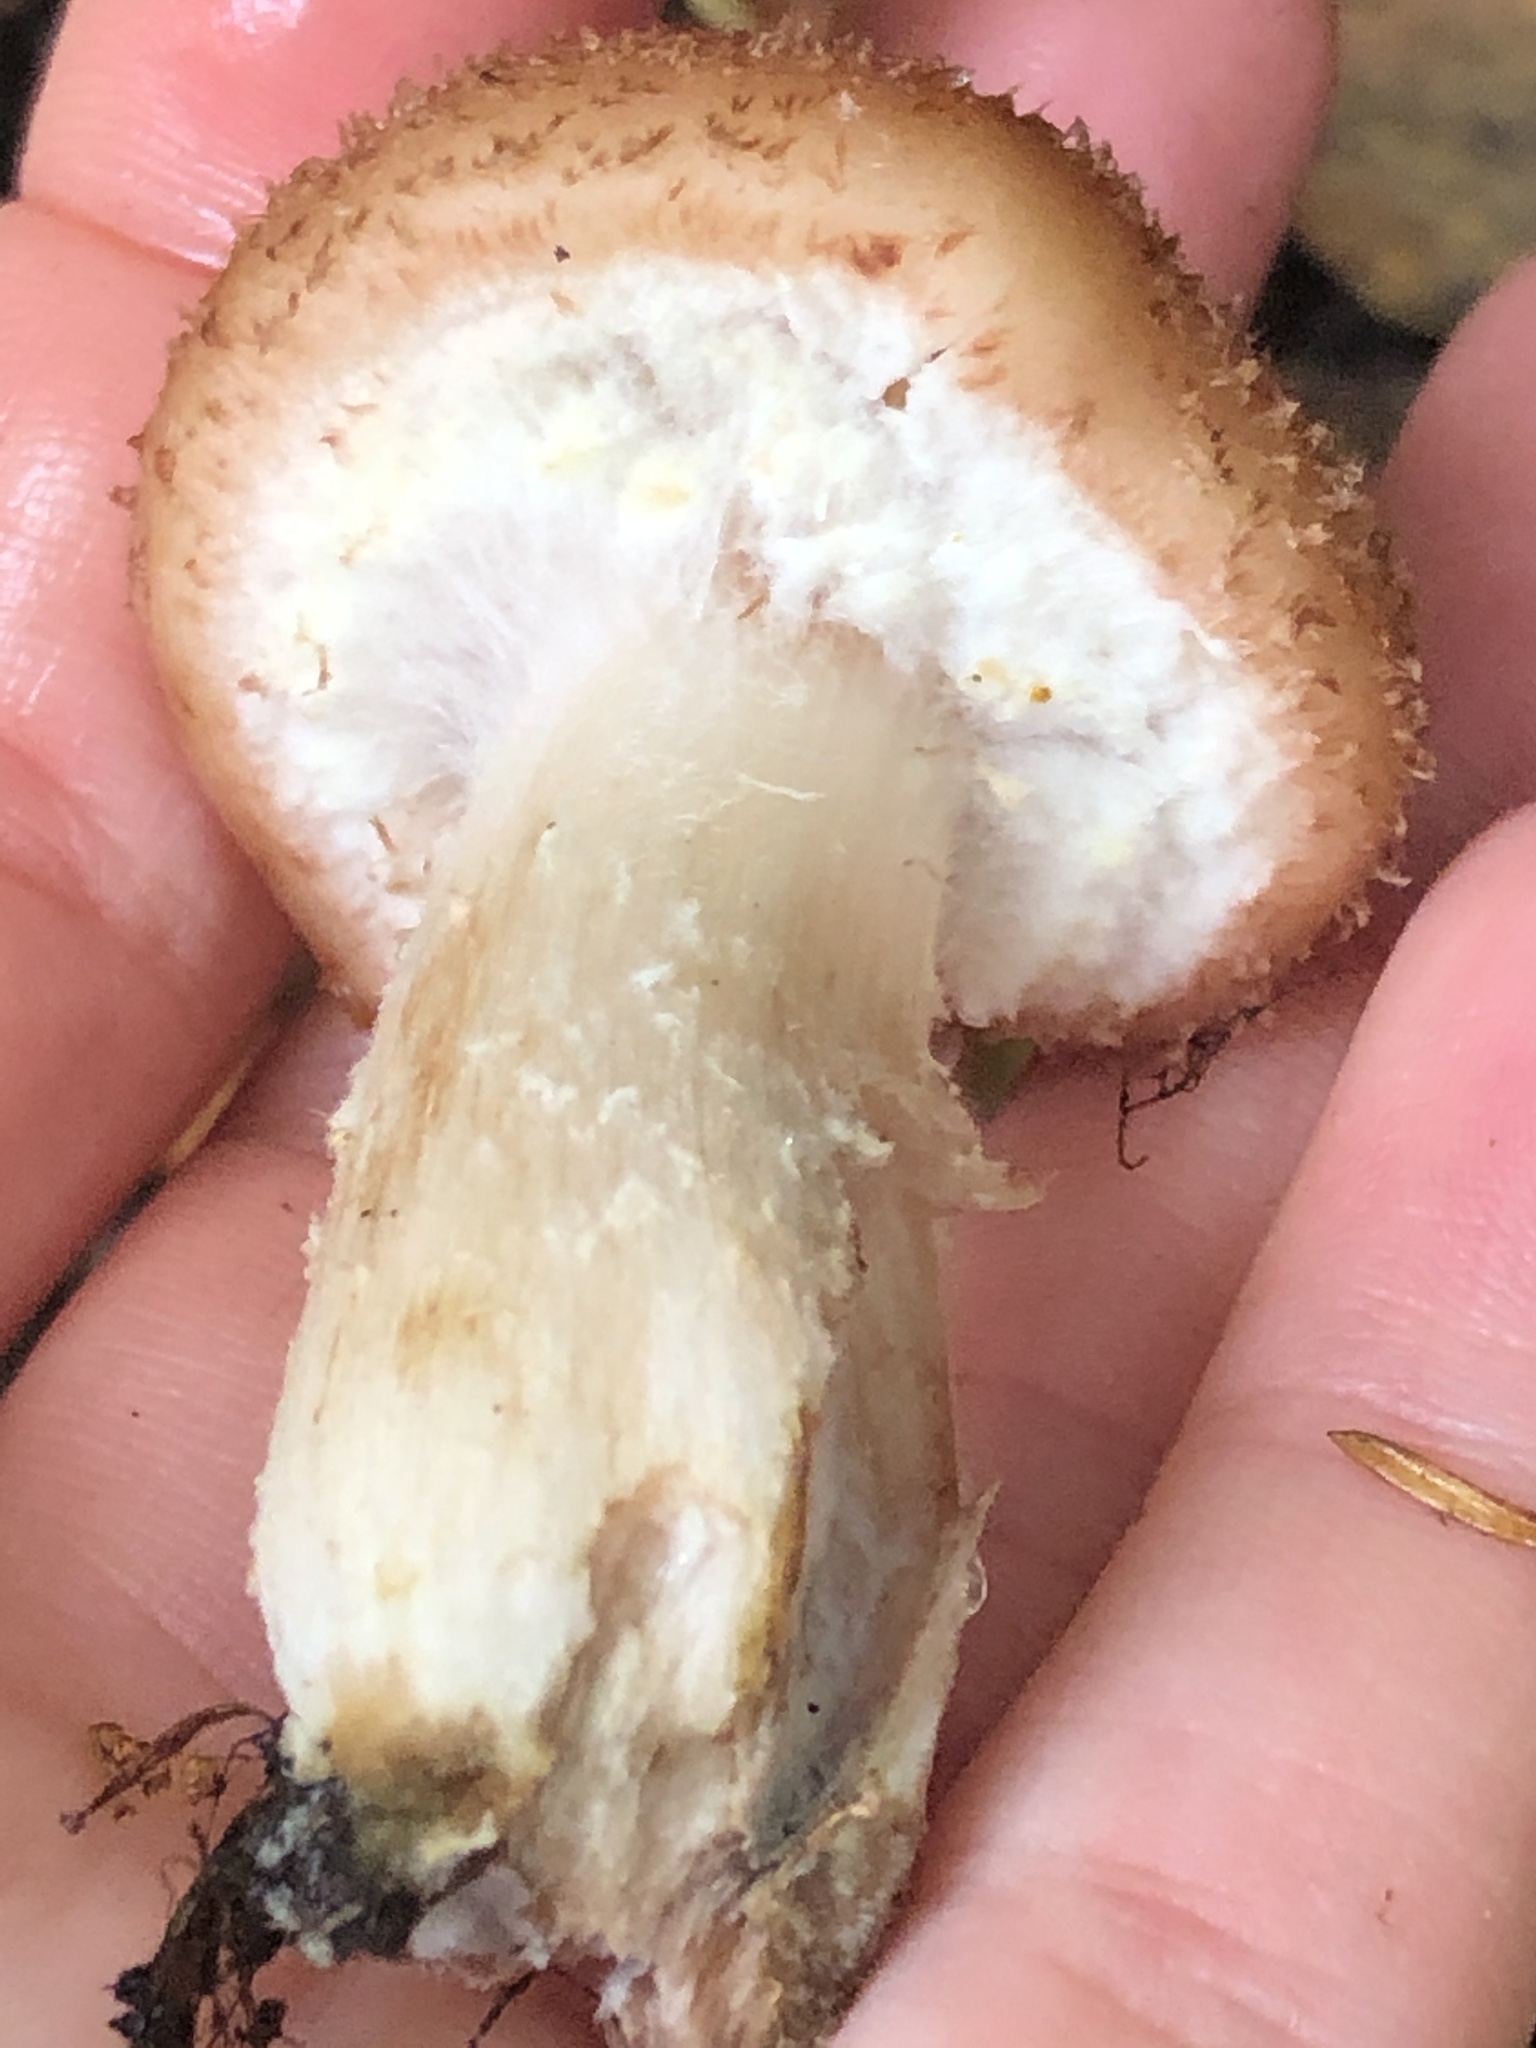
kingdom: Fungi
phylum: Basidiomycota
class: Agaricomycetes
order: Agaricales
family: Physalacriaceae
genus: Armillaria
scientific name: Armillaria ostoyae
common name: Dark honey fungus
